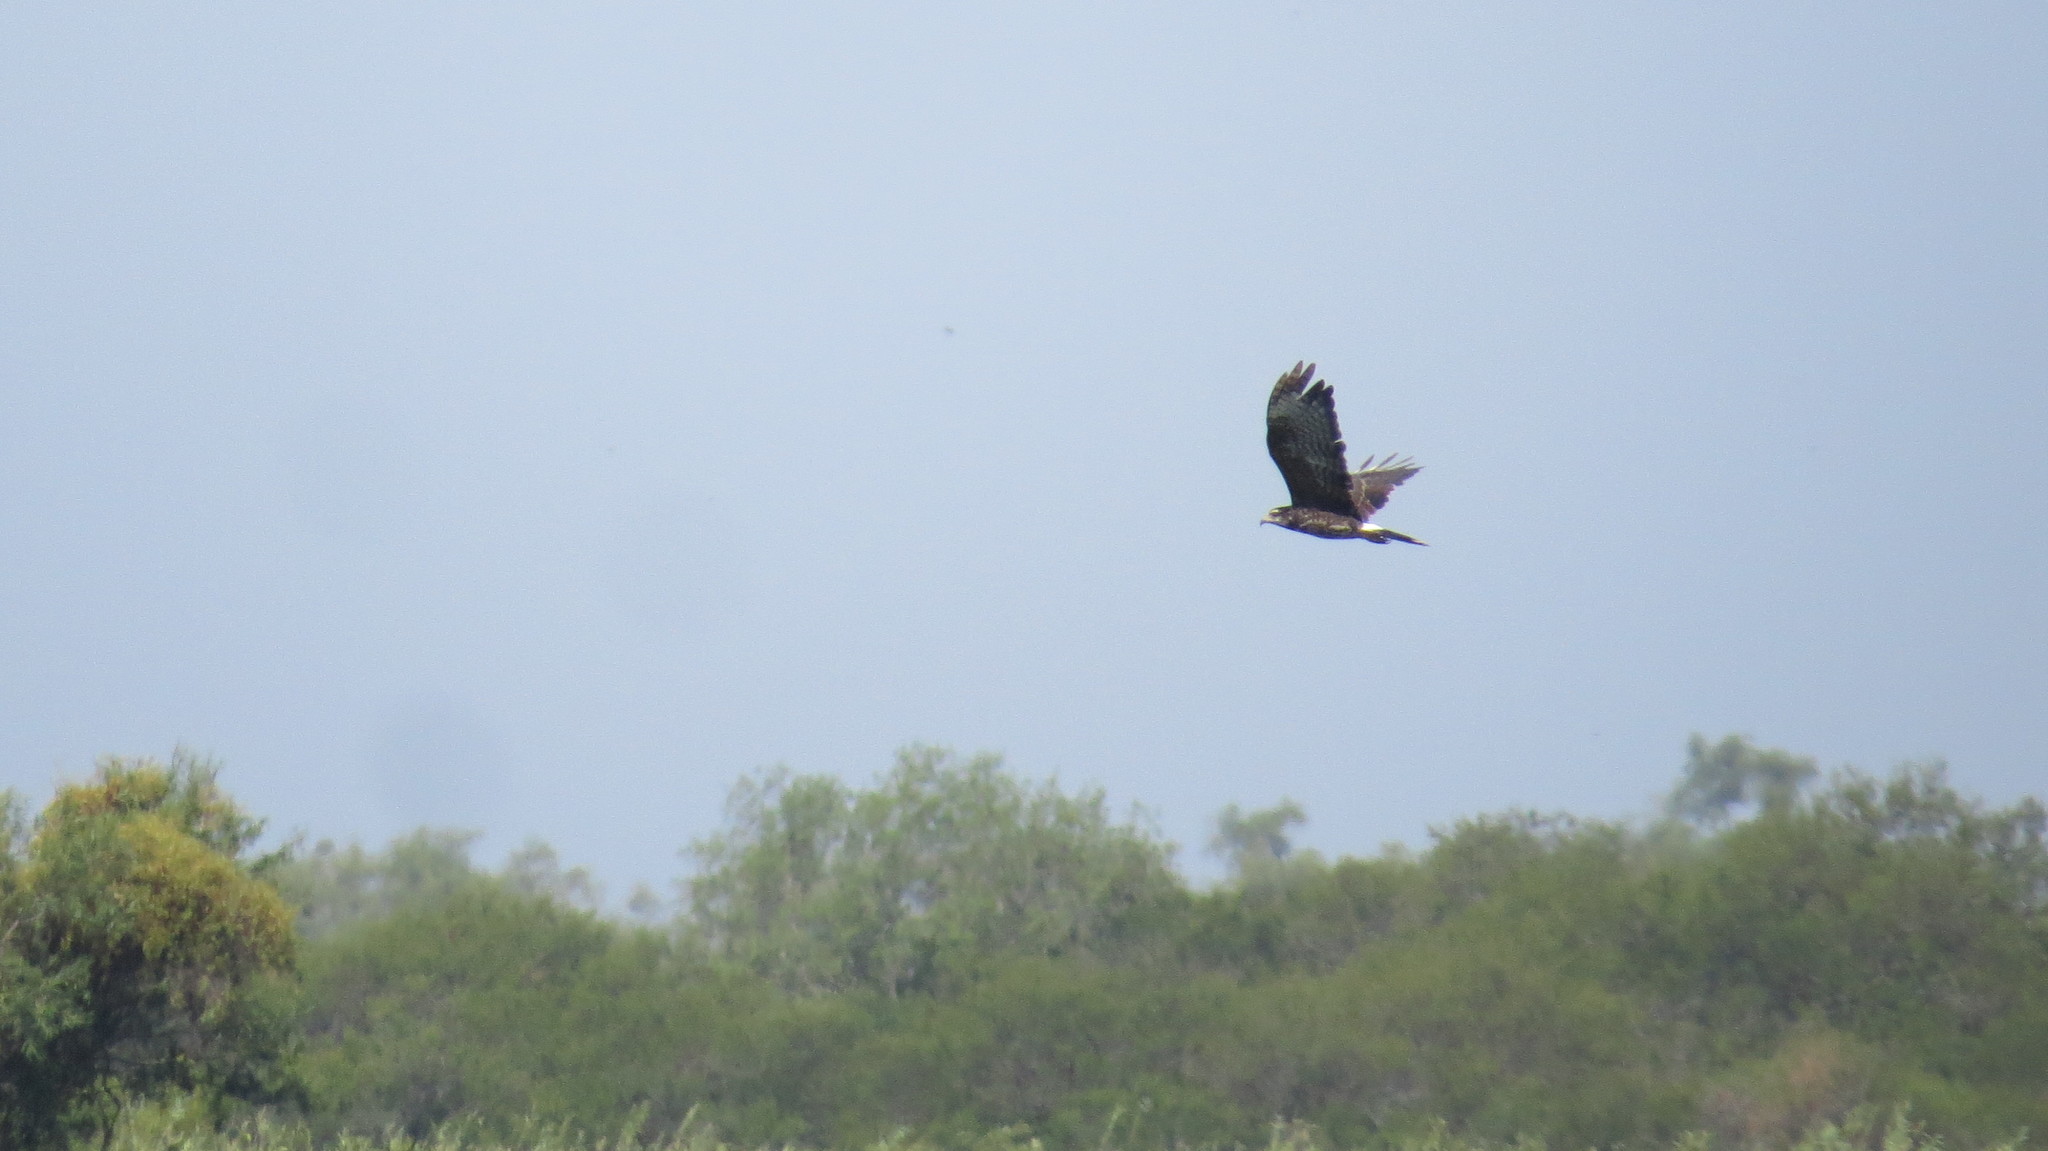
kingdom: Animalia
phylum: Chordata
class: Aves
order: Accipitriformes
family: Accipitridae
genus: Rostrhamus
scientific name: Rostrhamus sociabilis
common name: Snail kite
